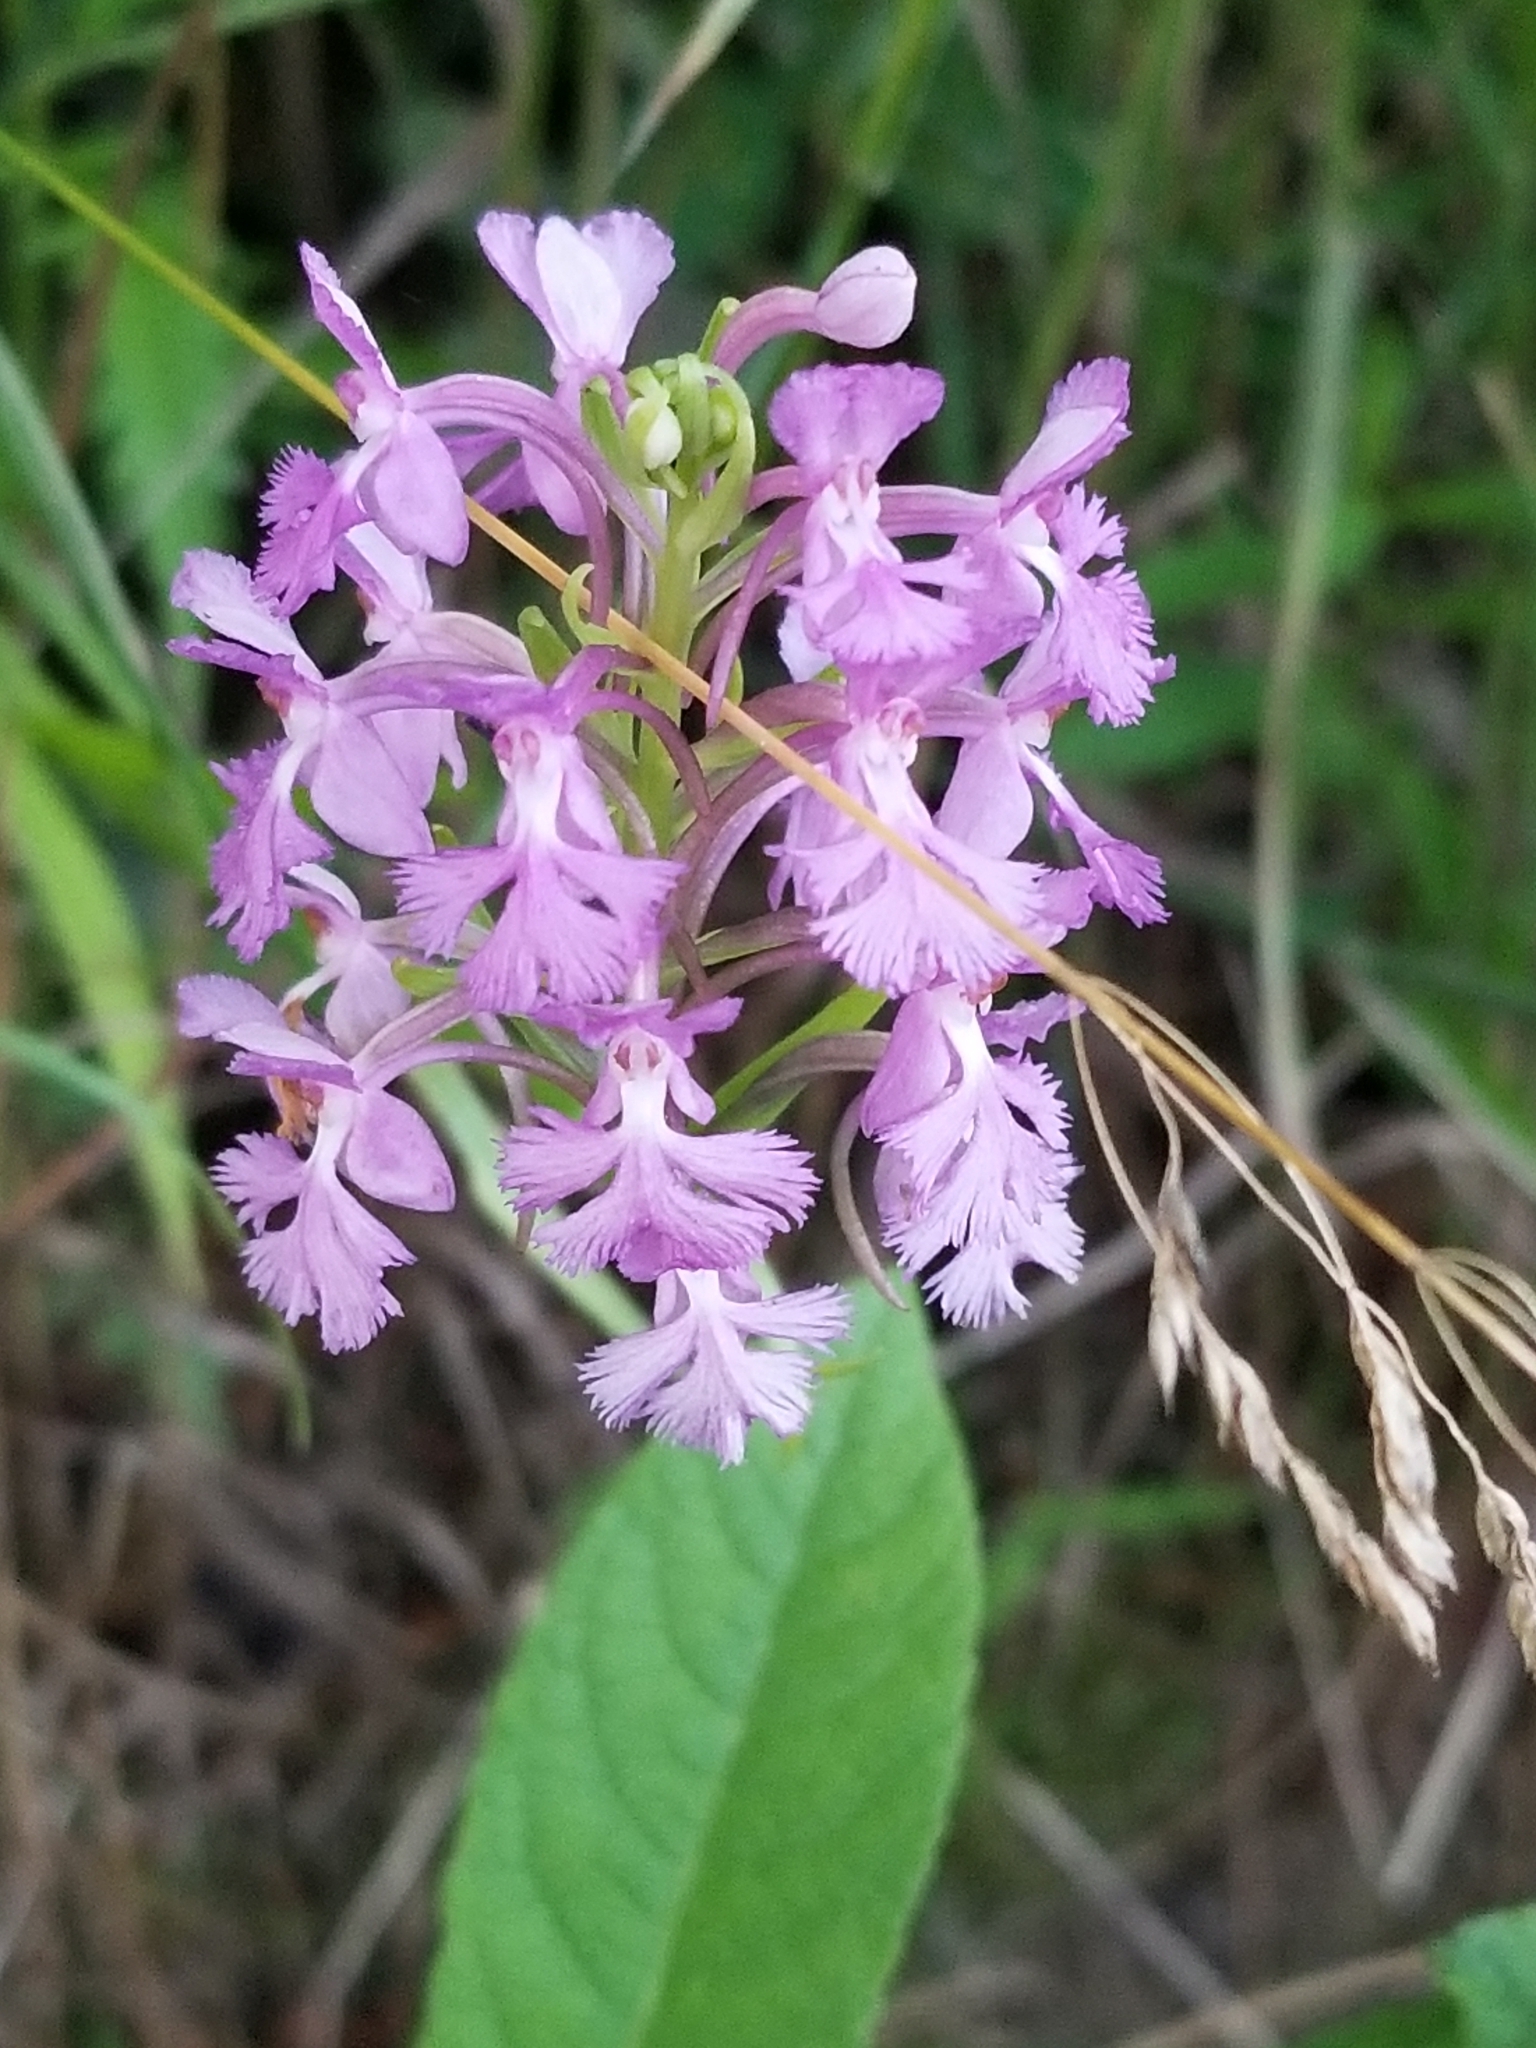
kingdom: Plantae
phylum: Tracheophyta
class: Liliopsida
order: Asparagales
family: Orchidaceae
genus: Platanthera
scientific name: Platanthera psycodes
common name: Lesser purple fringed orchid
